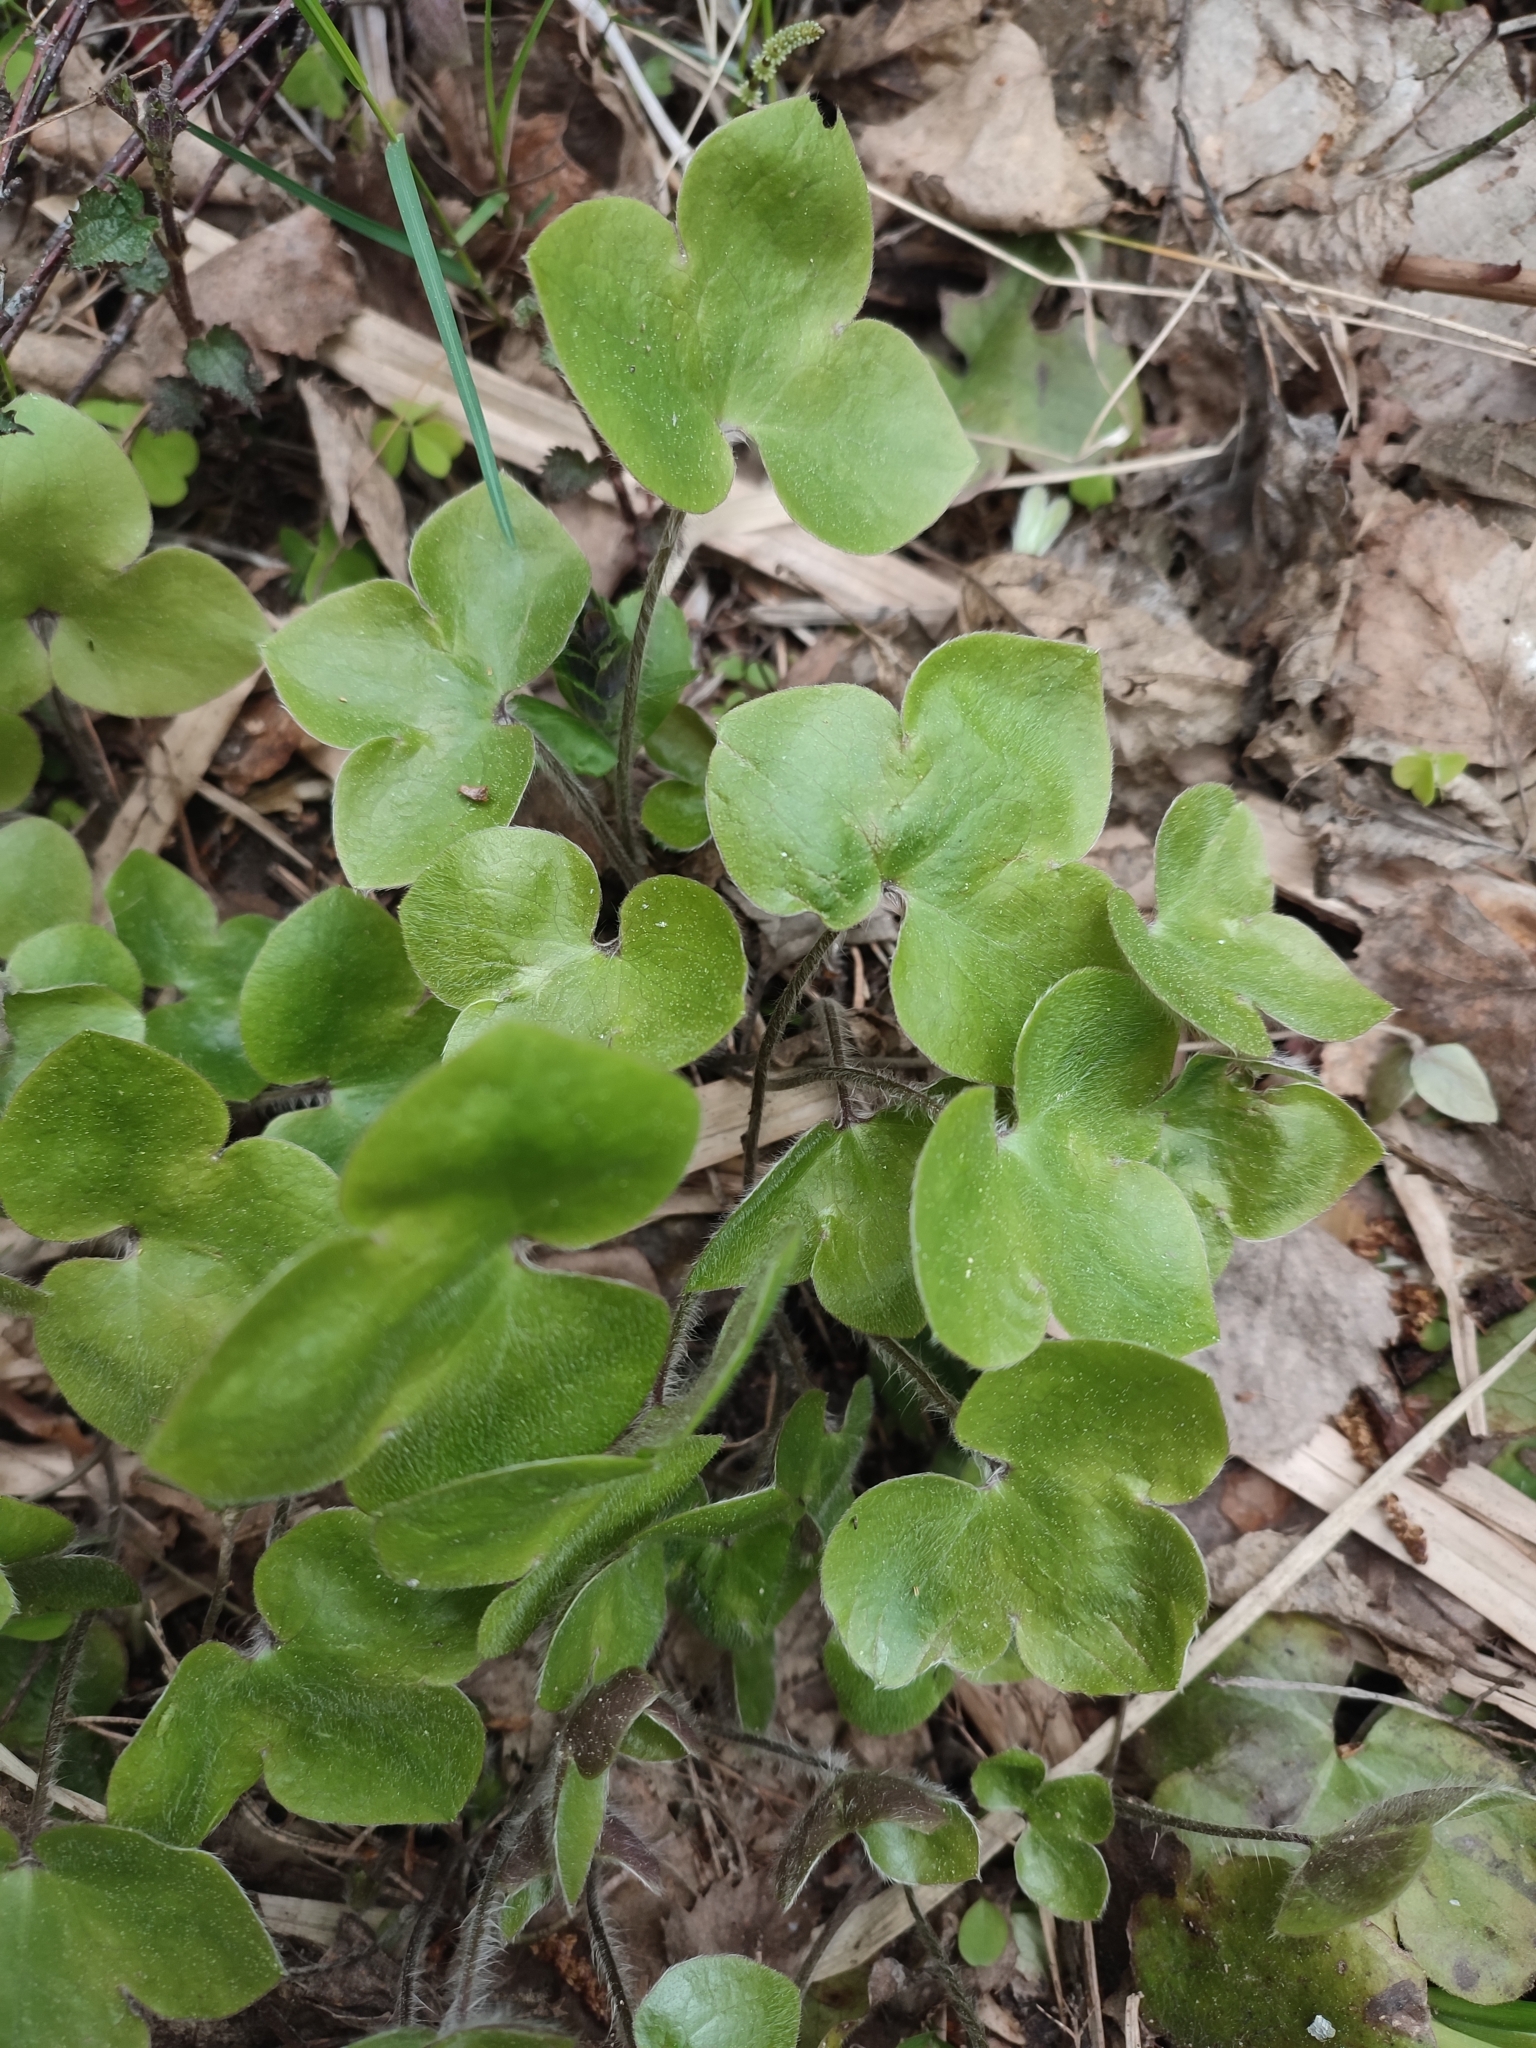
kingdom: Plantae
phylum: Tracheophyta
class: Magnoliopsida
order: Ranunculales
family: Ranunculaceae
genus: Hepatica
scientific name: Hepatica nobilis
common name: Liverleaf
